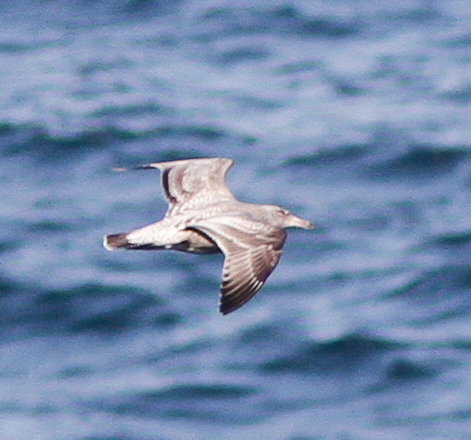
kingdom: Animalia
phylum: Chordata
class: Aves
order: Charadriiformes
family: Laridae
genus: Larus
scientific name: Larus argentatus
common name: Herring gull
